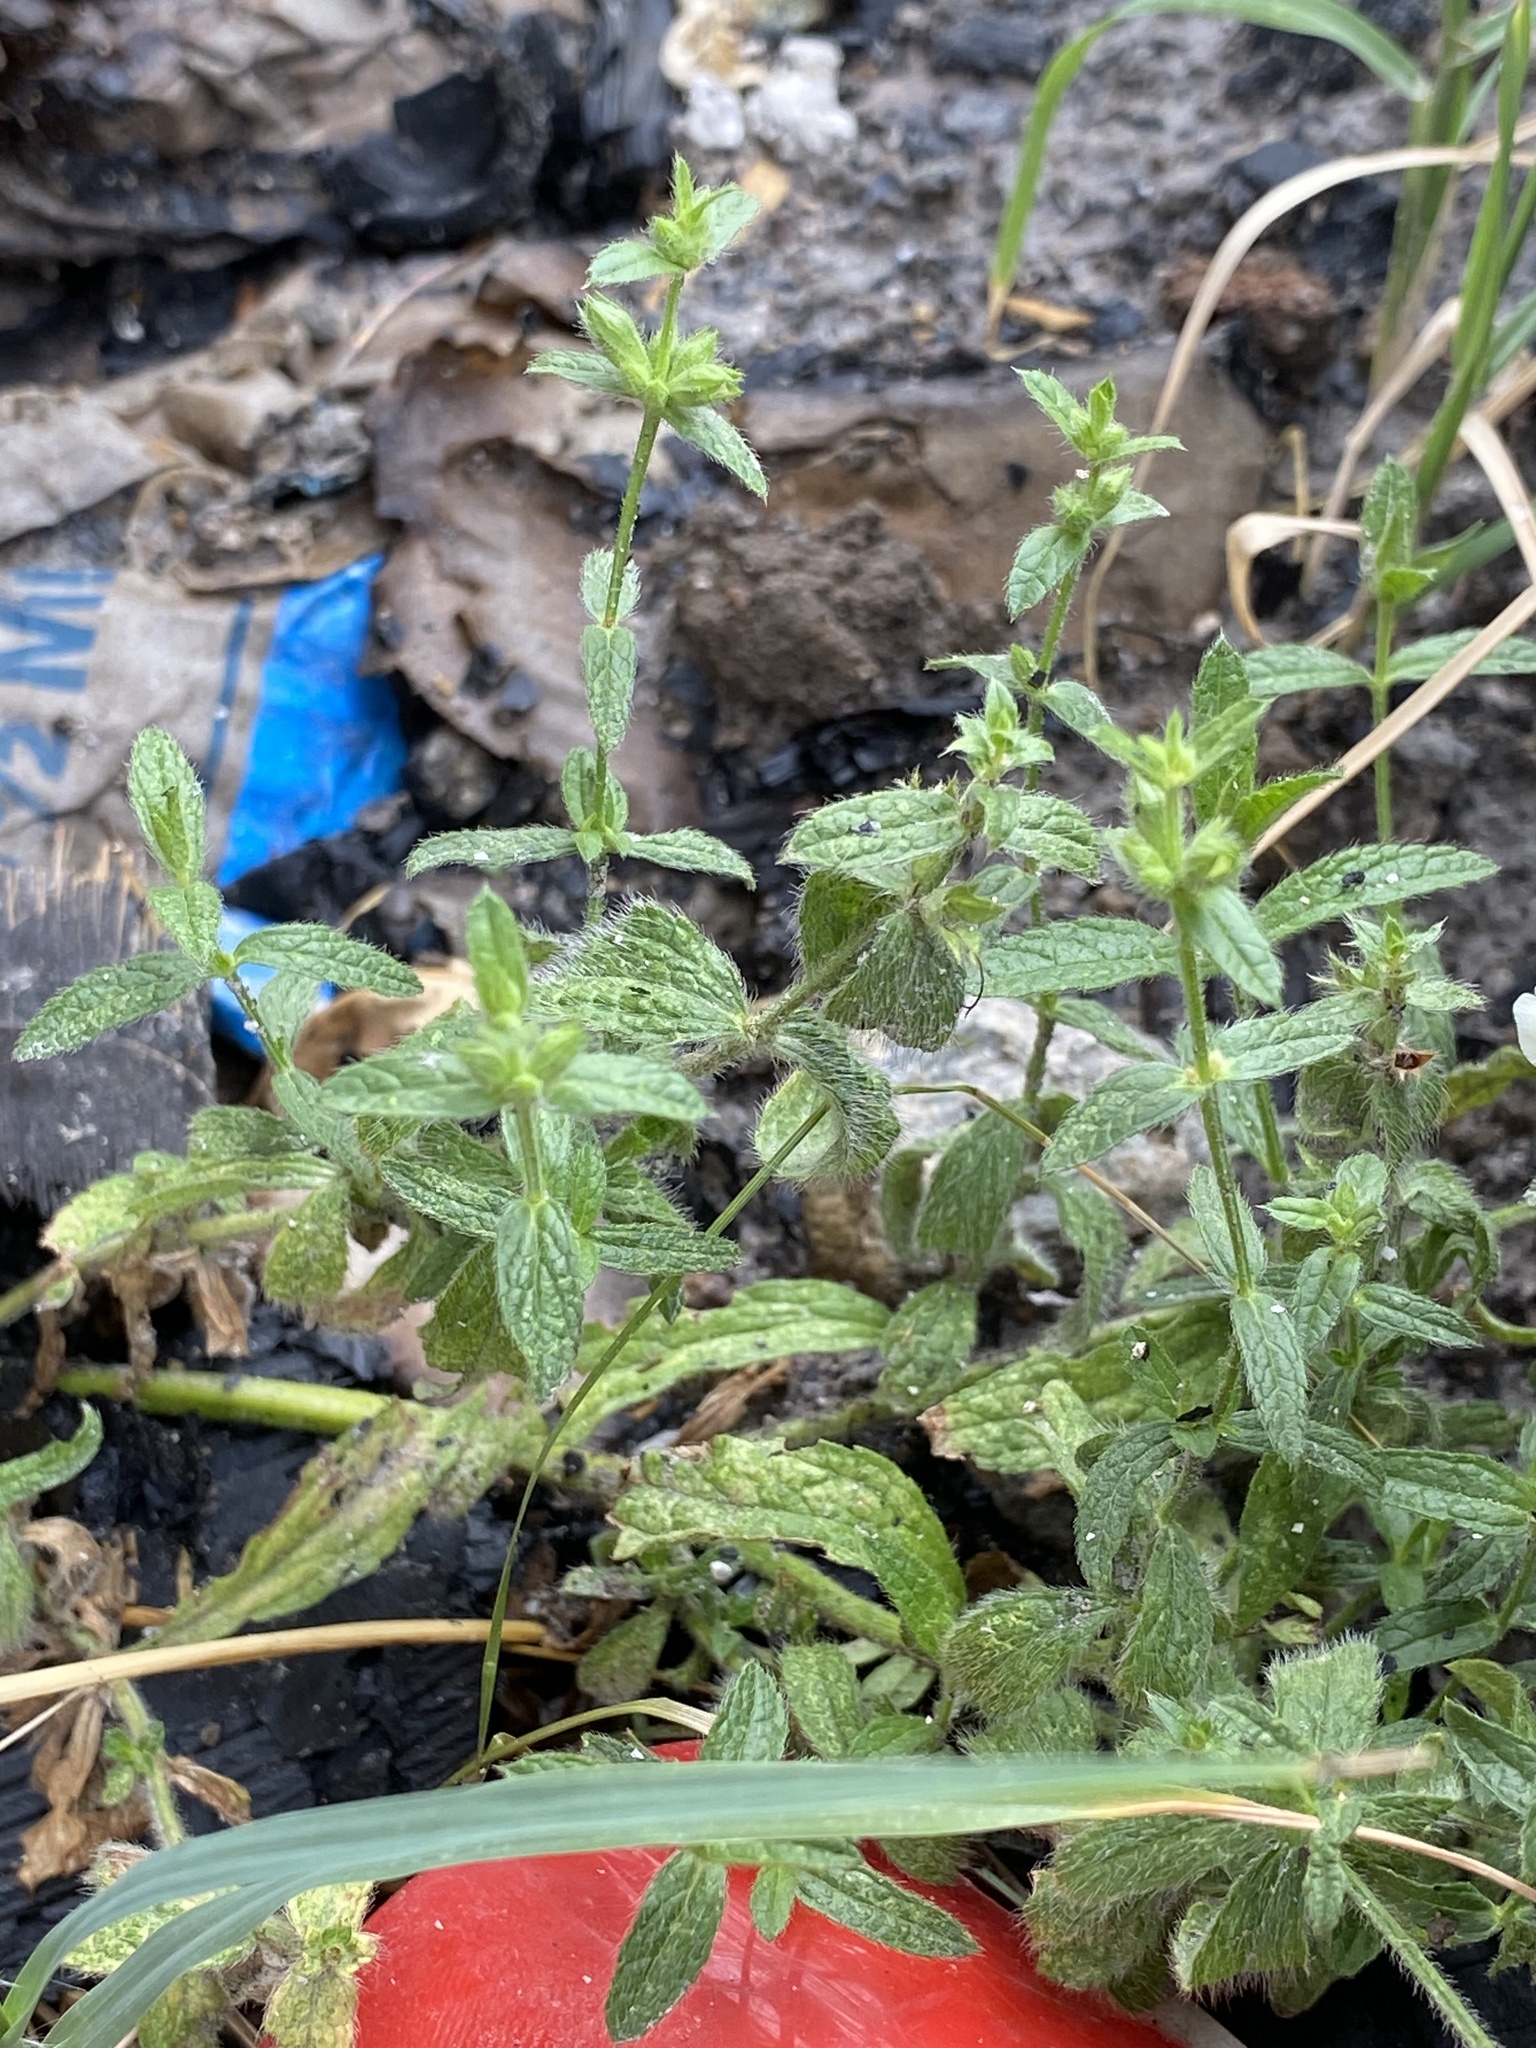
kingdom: Plantae
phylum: Tracheophyta
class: Magnoliopsida
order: Lamiales
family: Lamiaceae
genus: Stachys
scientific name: Stachys recta
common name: Perennial yellow-woundwort
